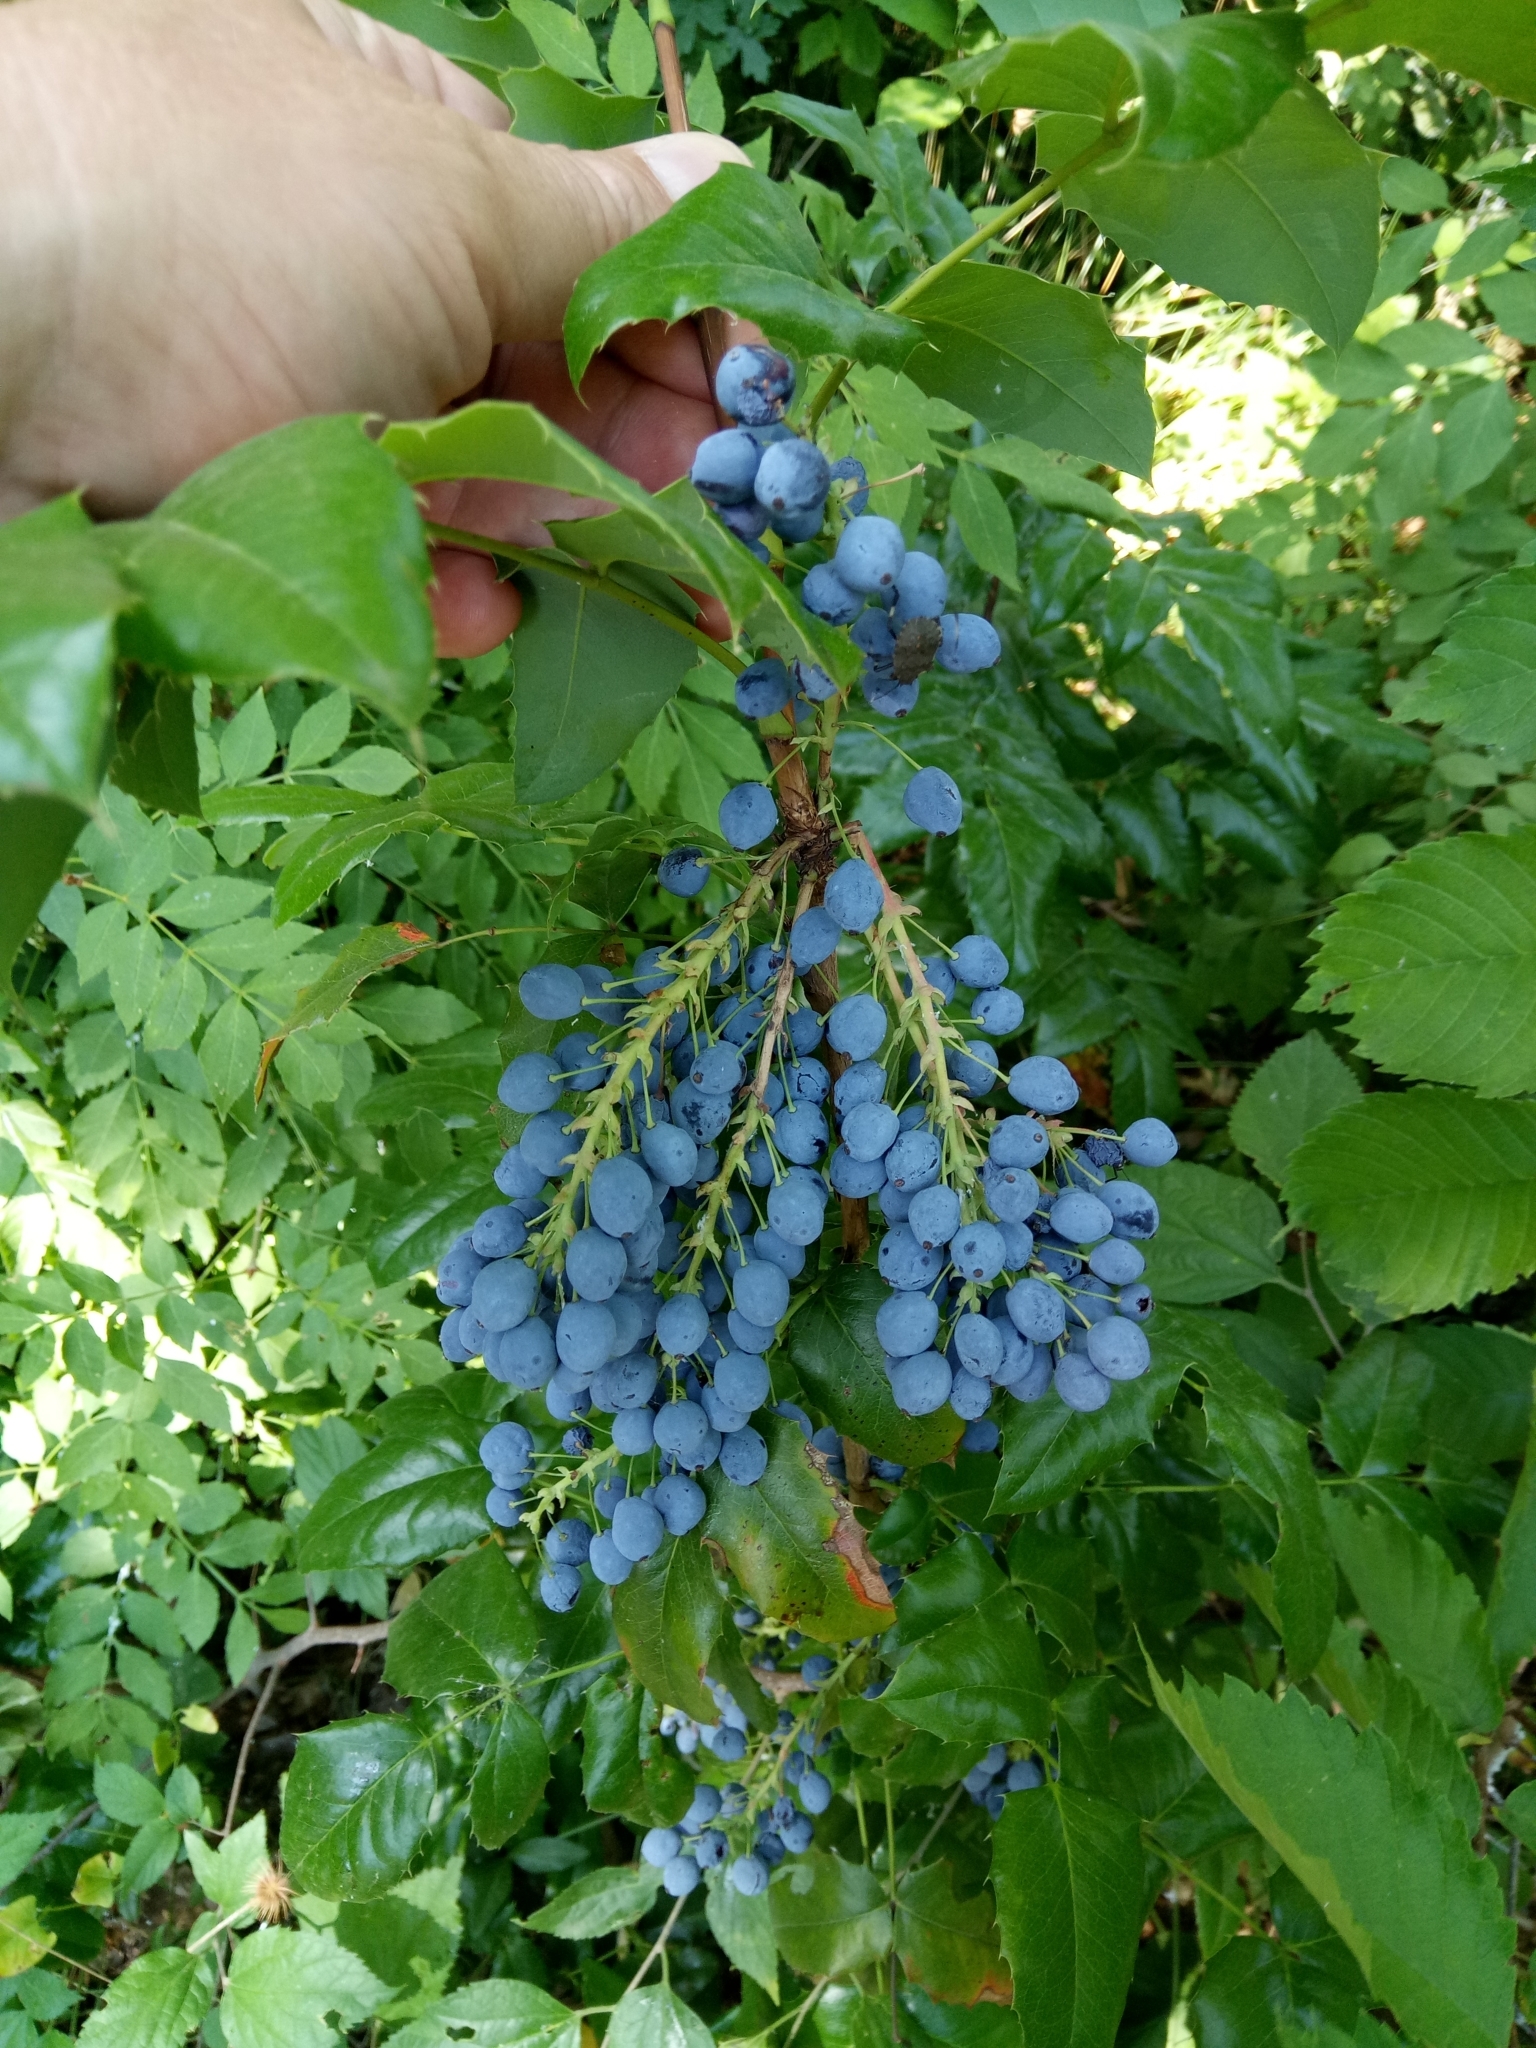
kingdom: Plantae
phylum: Tracheophyta
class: Magnoliopsida
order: Ranunculales
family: Berberidaceae
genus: Mahonia
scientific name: Mahonia aquifolium
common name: Oregon-grape
